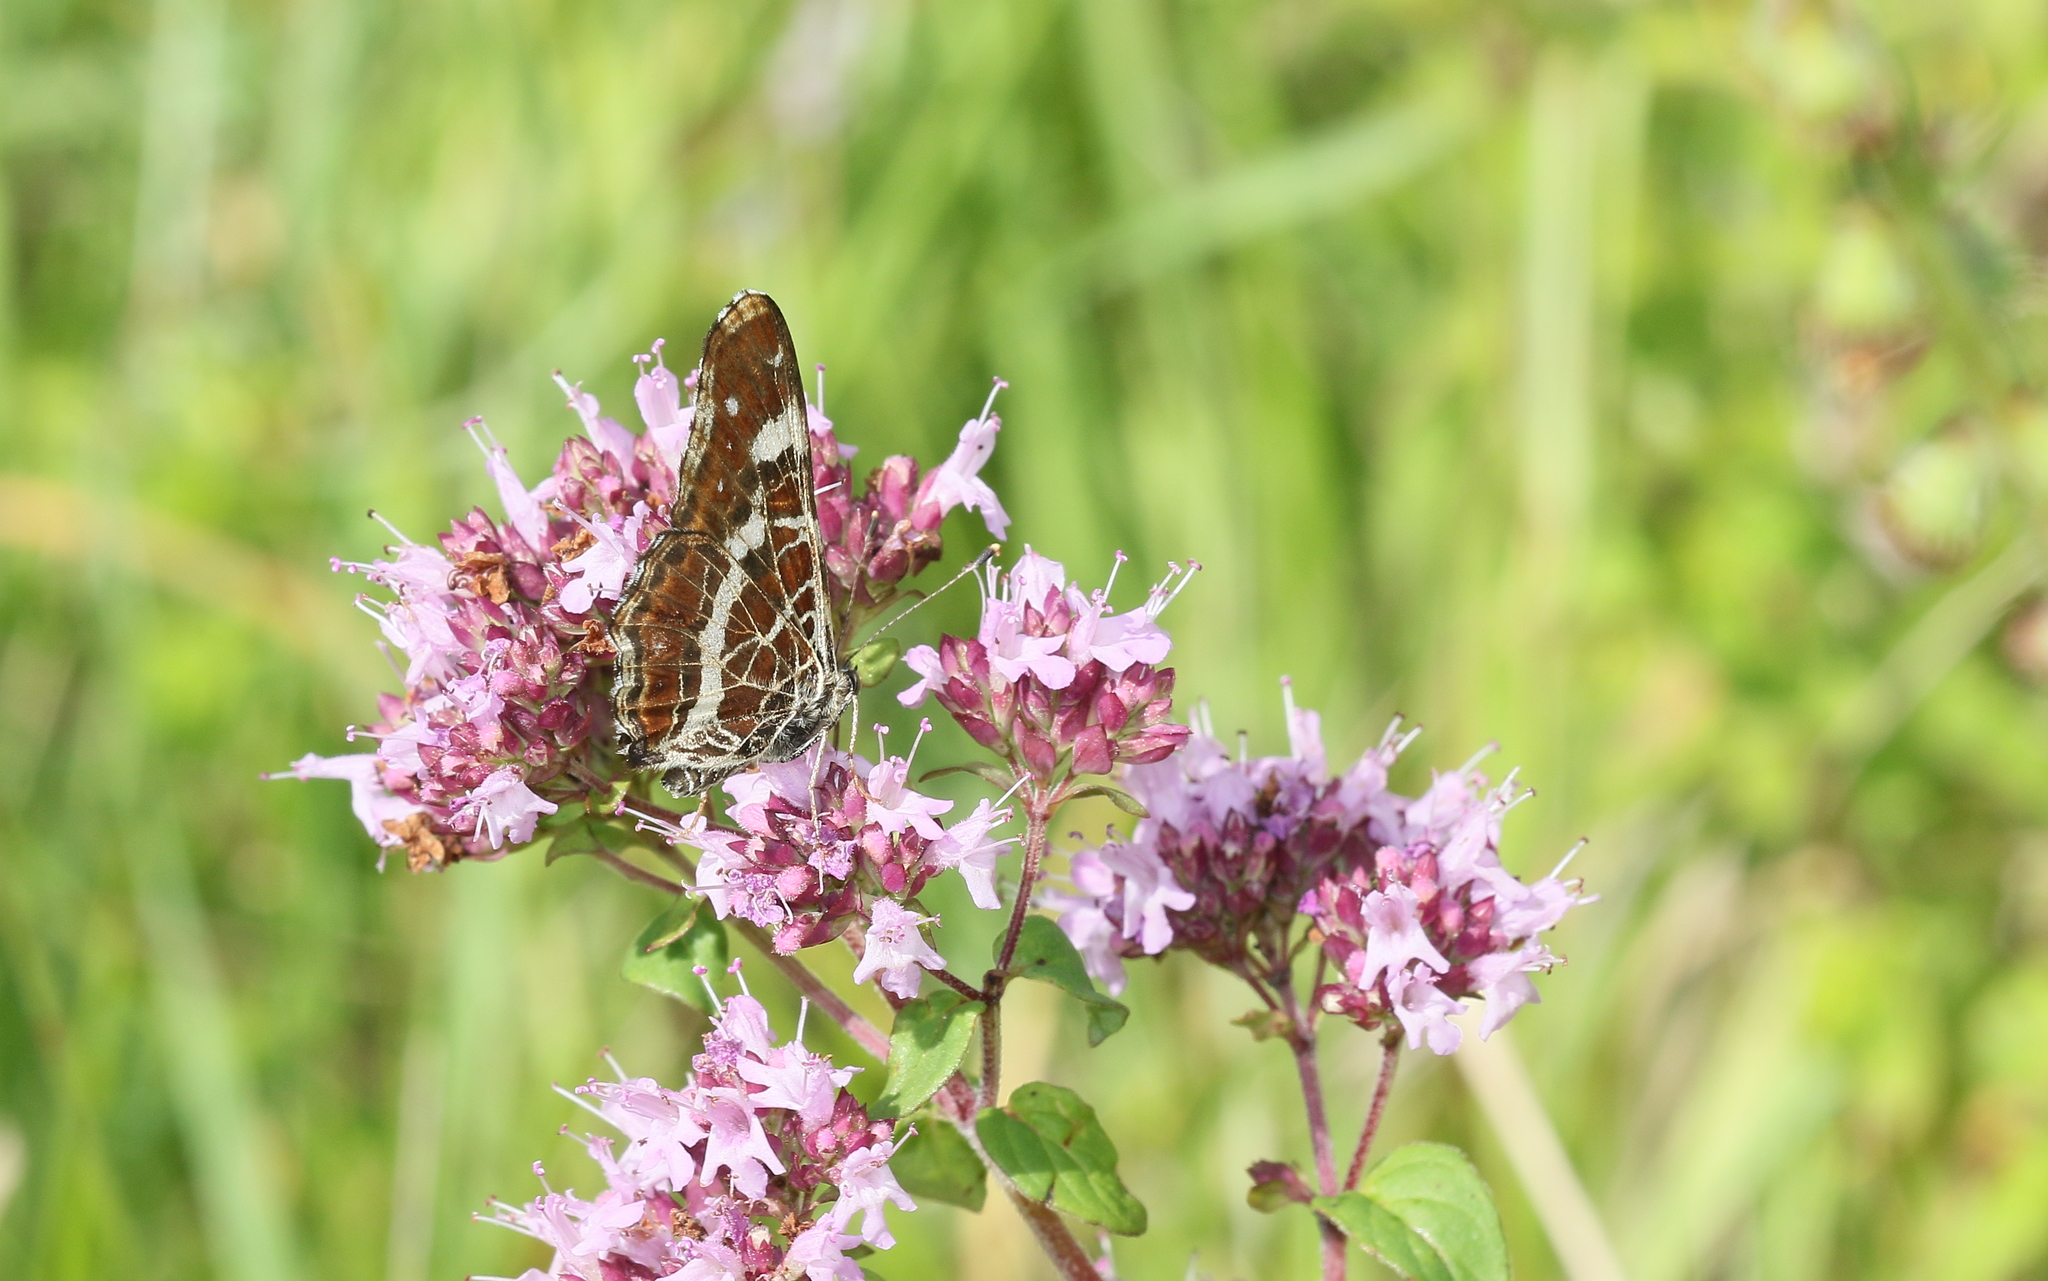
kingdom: Animalia
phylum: Arthropoda
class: Insecta
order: Lepidoptera
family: Nymphalidae
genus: Araschnia
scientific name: Araschnia levana
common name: Map butterfly
